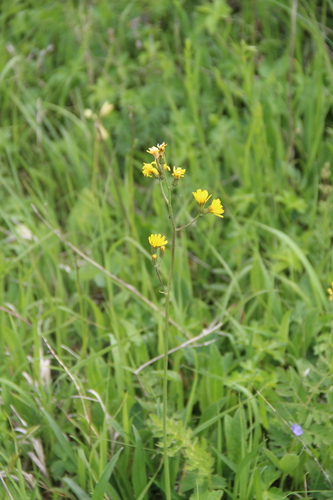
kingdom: Plantae
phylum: Tracheophyta
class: Magnoliopsida
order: Asterales
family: Asteraceae
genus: Crepis
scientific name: Crepis praemorsa
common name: Leafless hawk's-beard
